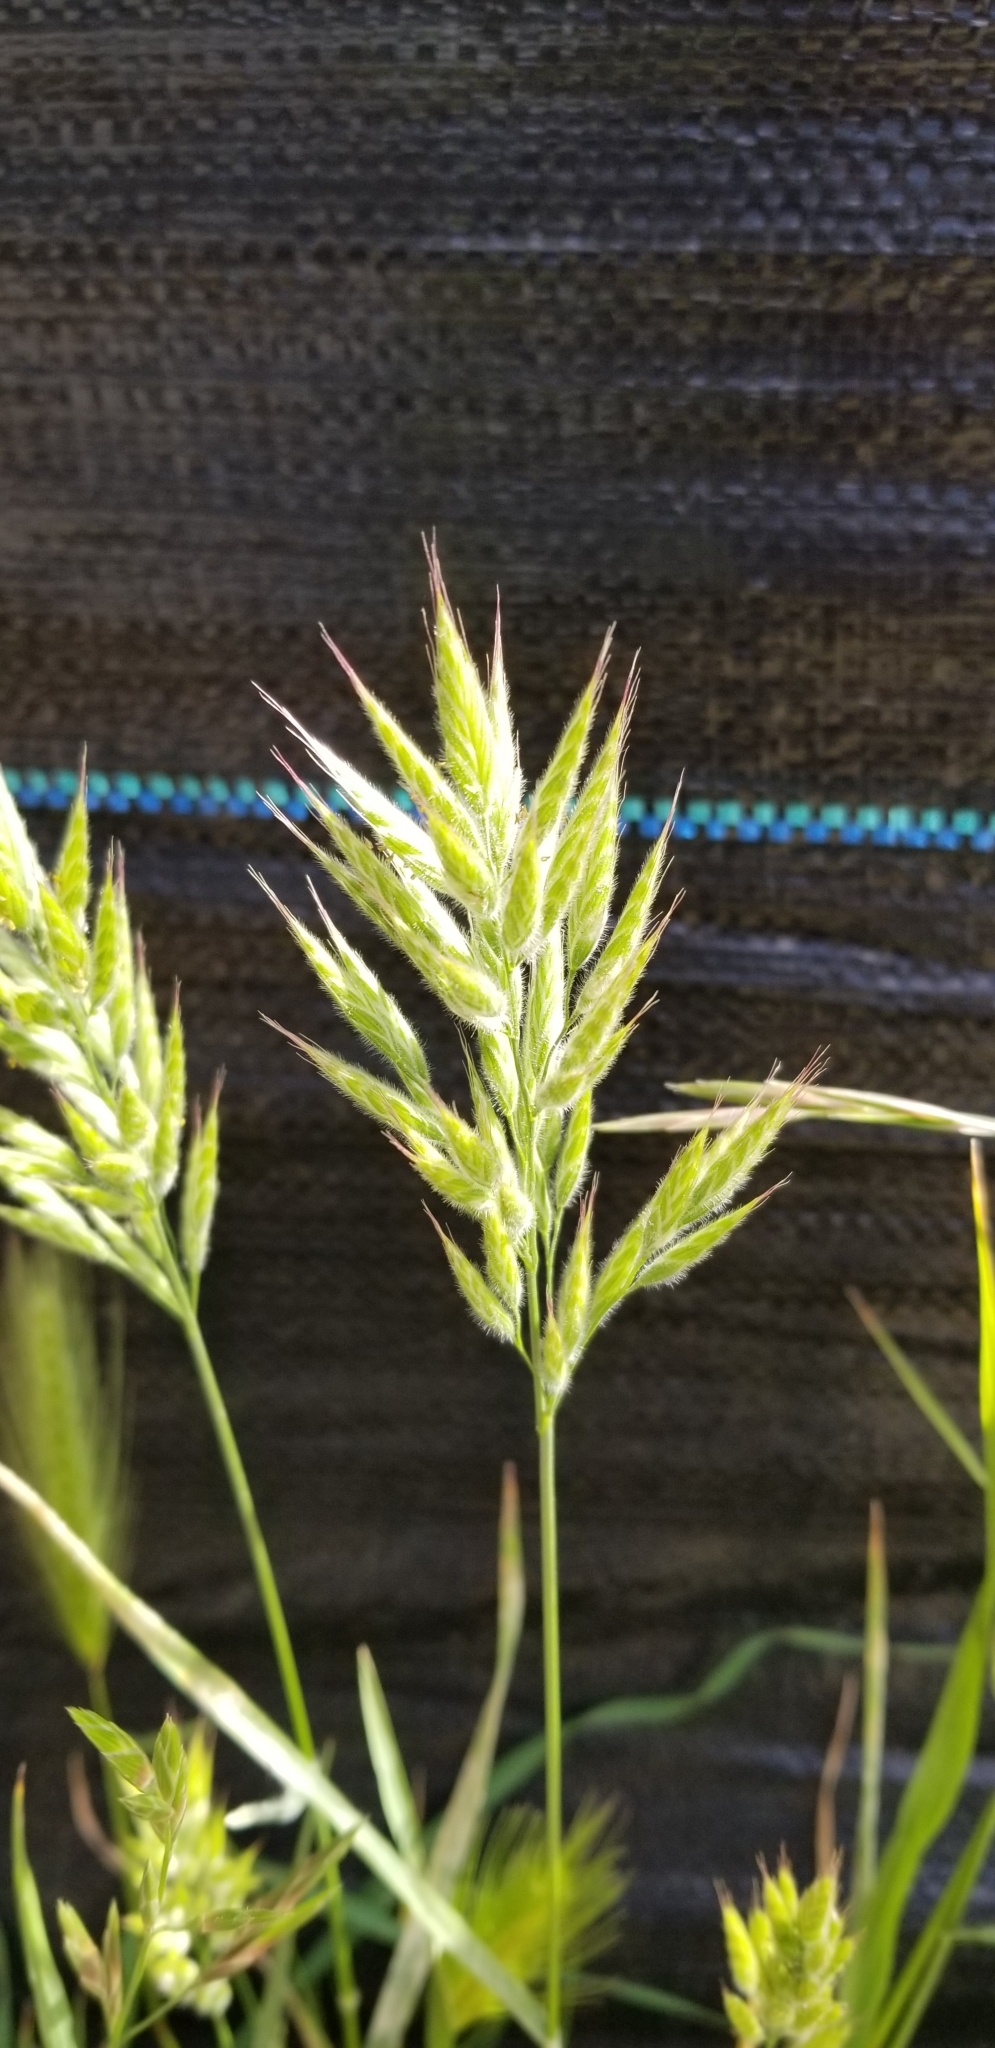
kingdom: Plantae
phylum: Tracheophyta
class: Liliopsida
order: Poales
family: Poaceae
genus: Bromus
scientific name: Bromus hordeaceus
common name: Soft brome
